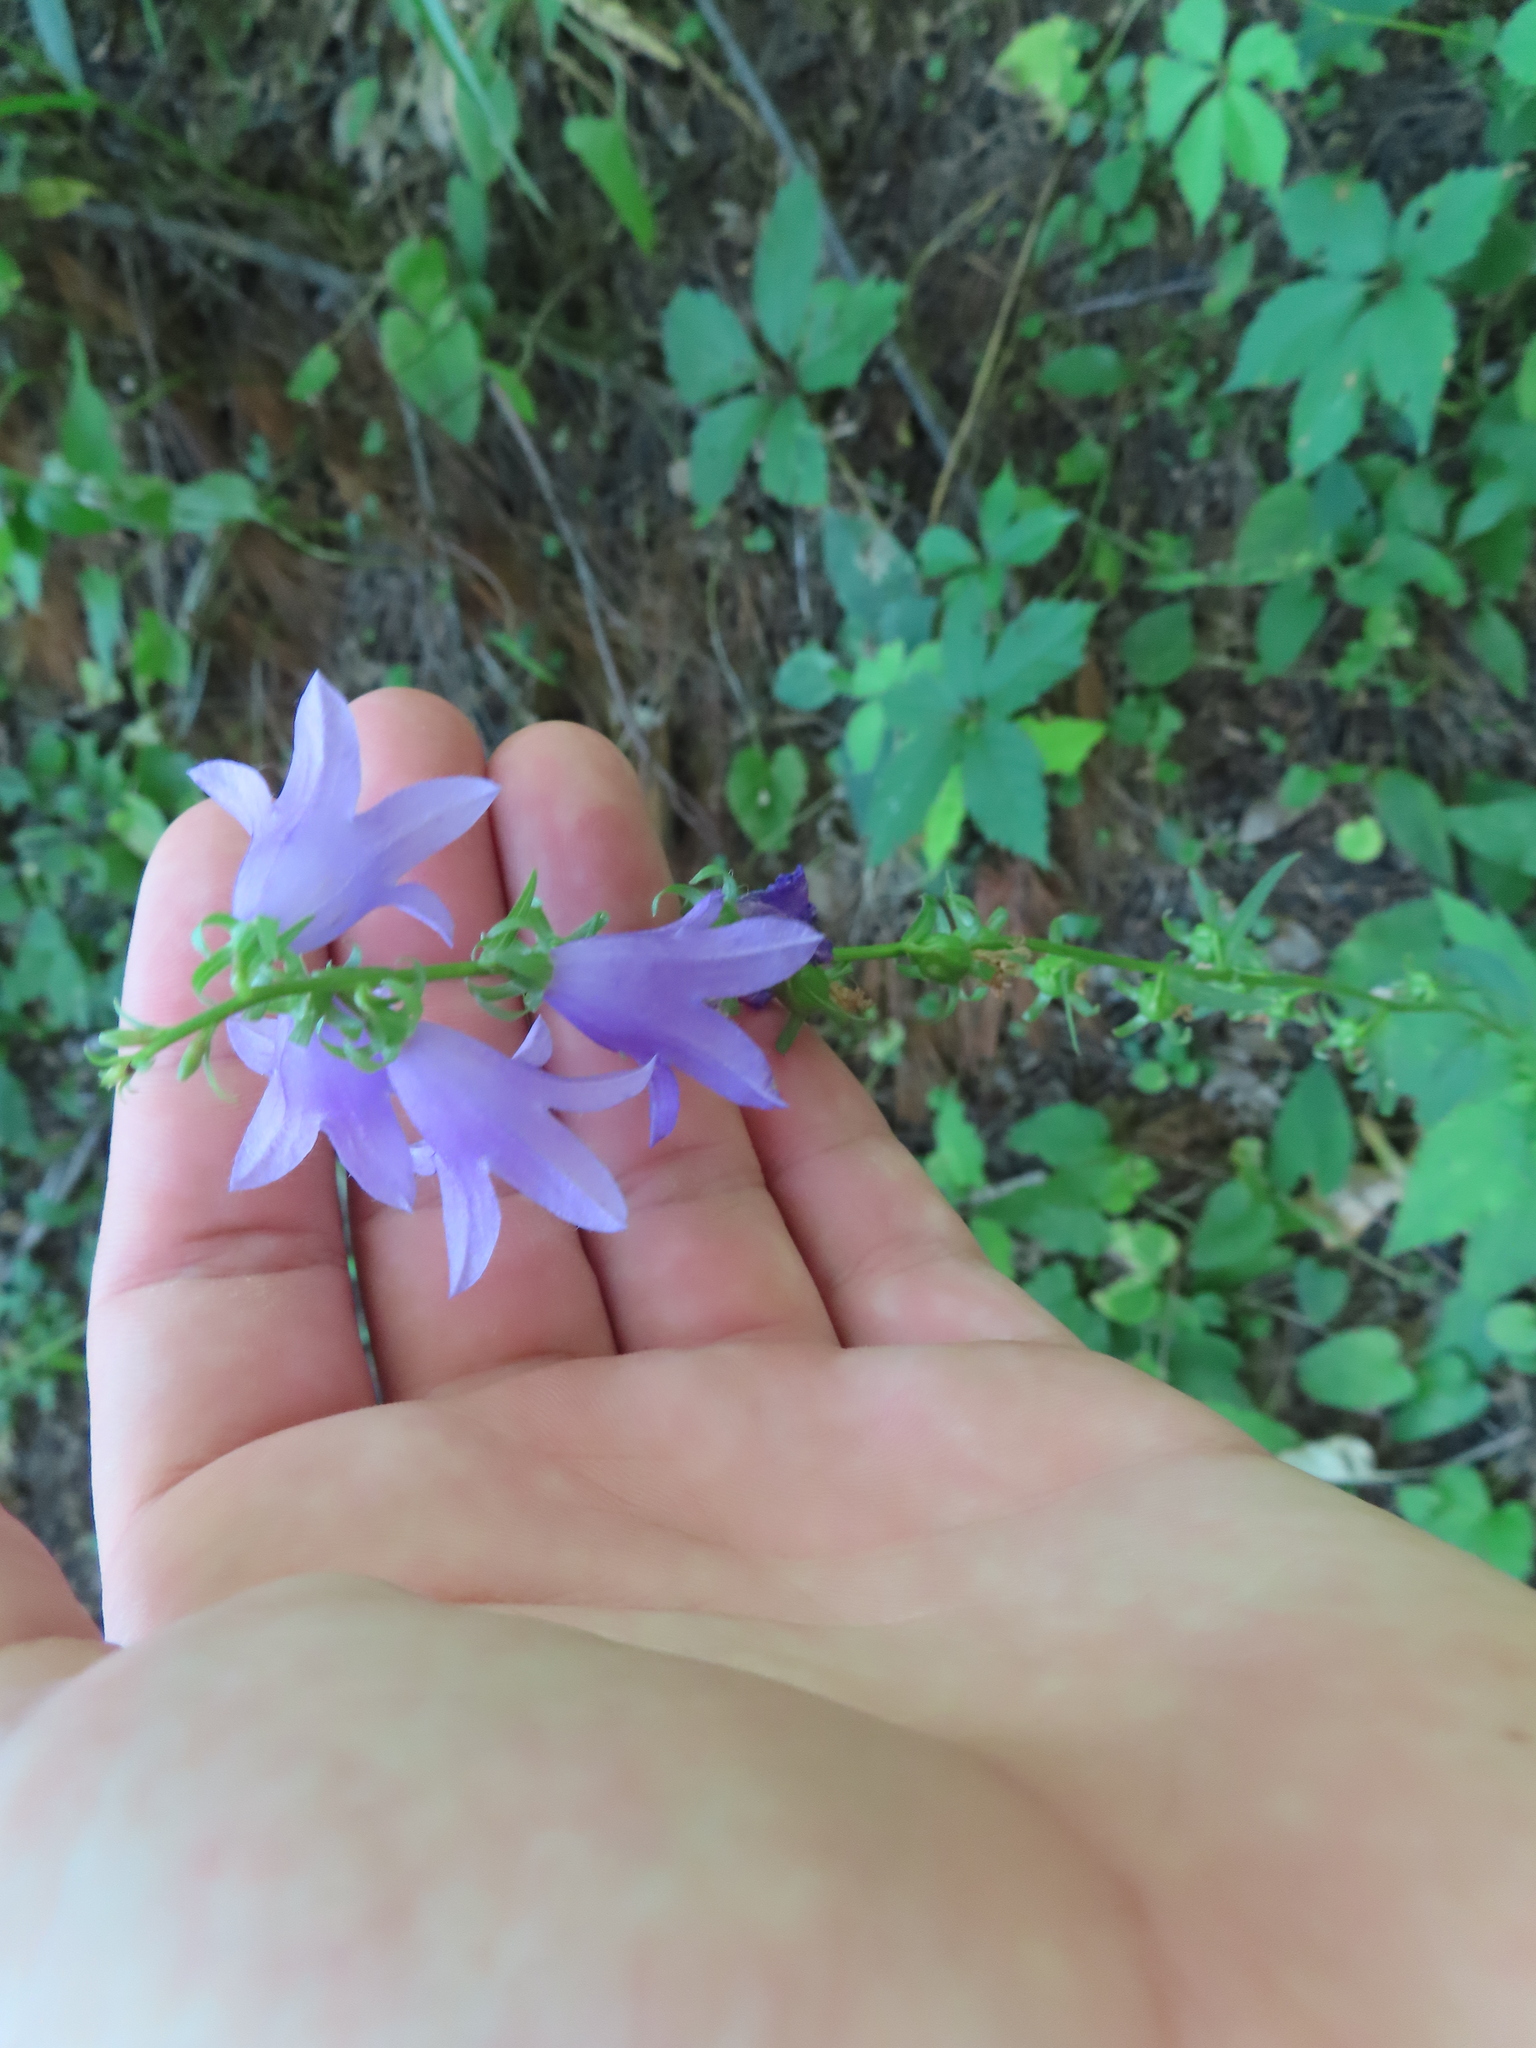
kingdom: Plantae
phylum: Tracheophyta
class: Magnoliopsida
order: Asterales
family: Campanulaceae
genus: Campanula
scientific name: Campanula rapunculoides
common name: Creeping bellflower
